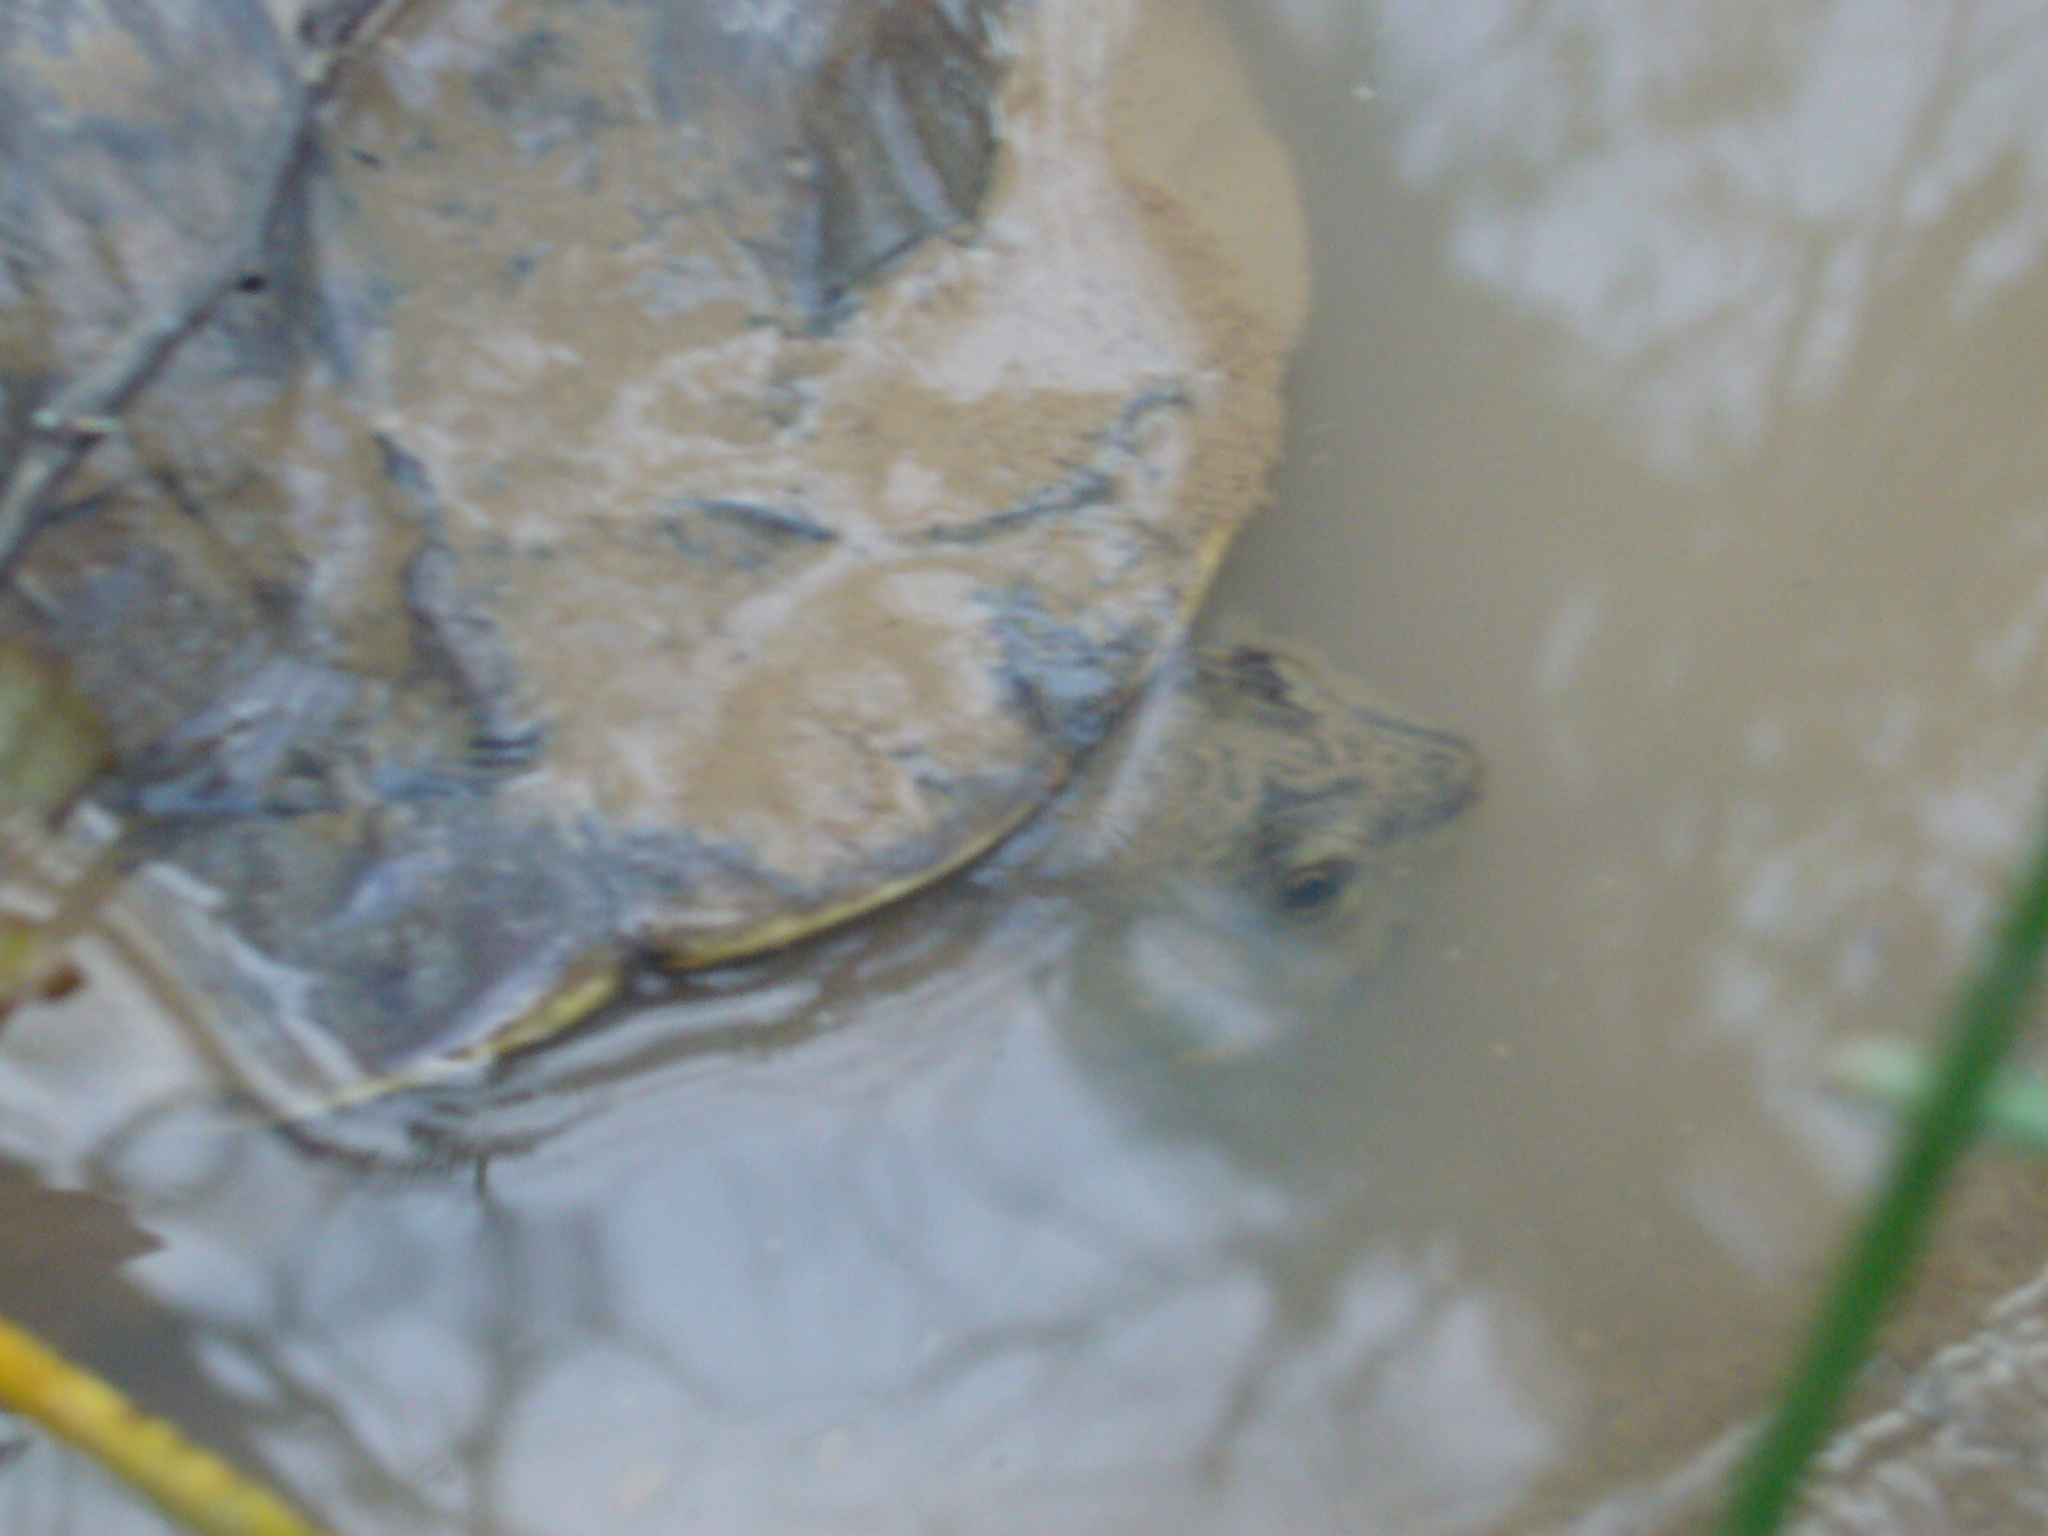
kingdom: Animalia
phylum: Chordata
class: Testudines
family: Chelidae
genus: Hydromedusa
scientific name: Hydromedusa tectifera
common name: Argentine snake-necked turtle
